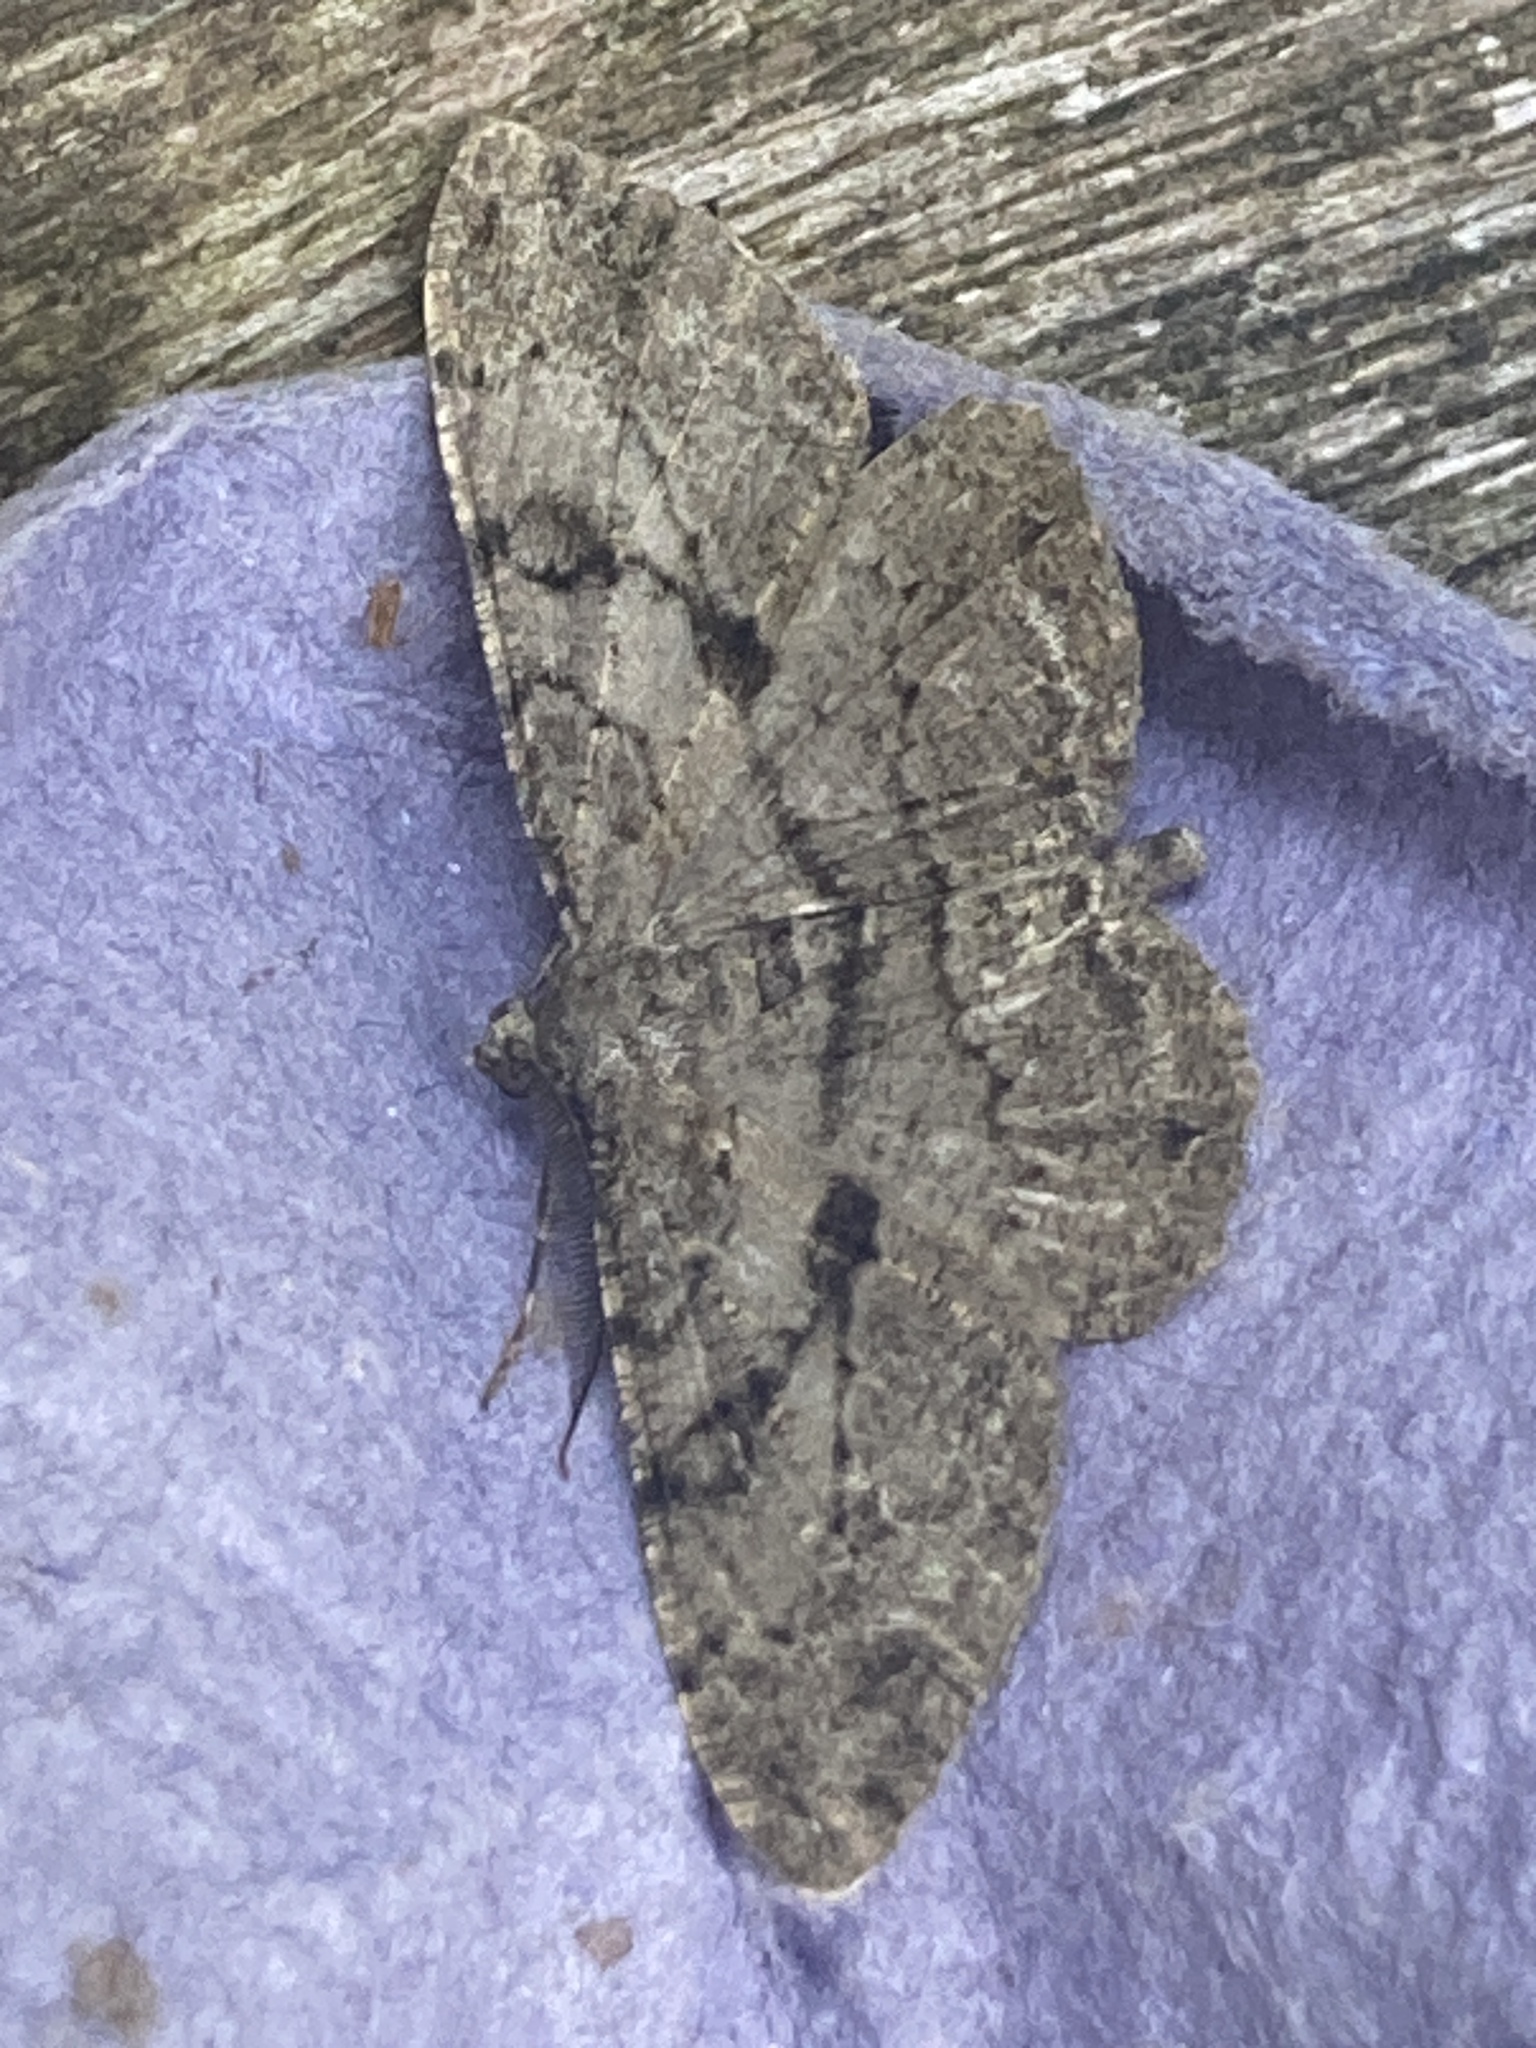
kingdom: Animalia
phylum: Arthropoda
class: Insecta
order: Lepidoptera
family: Geometridae
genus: Peribatodes
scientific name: Peribatodes rhomboidaria
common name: Willow beauty
